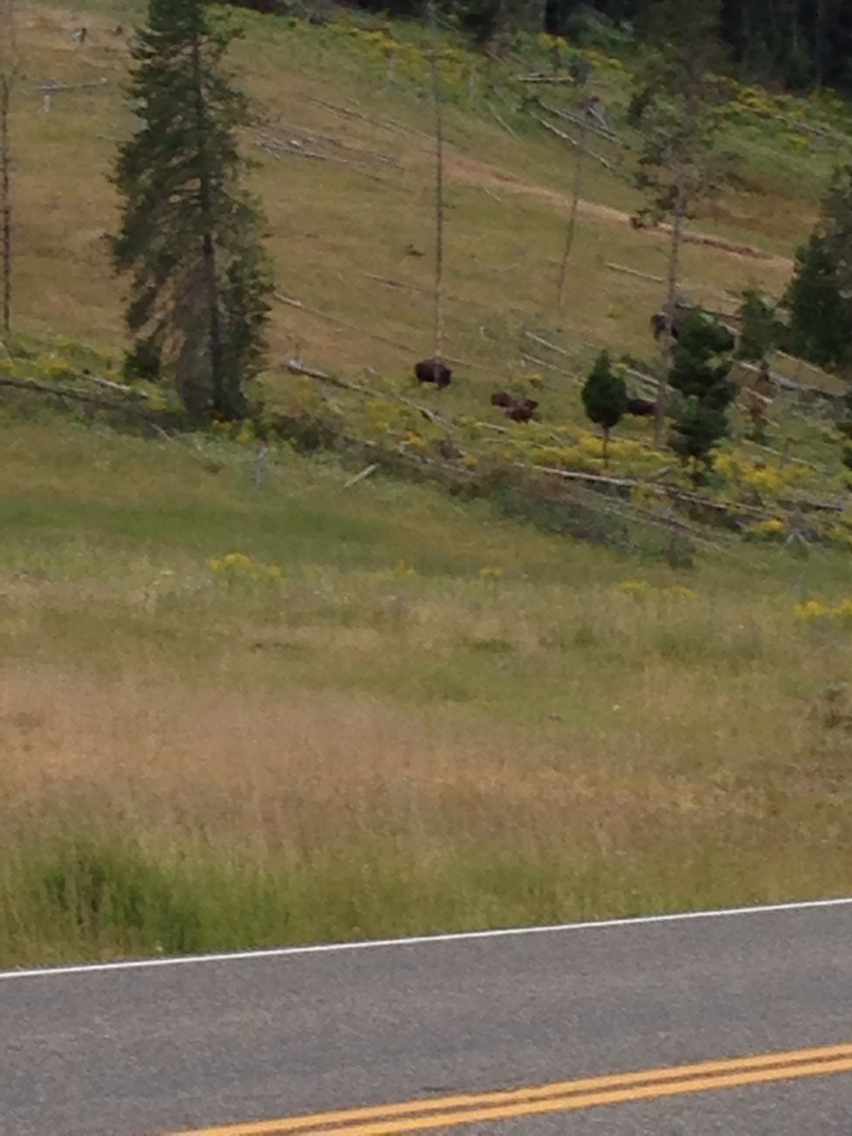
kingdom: Animalia
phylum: Chordata
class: Mammalia
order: Artiodactyla
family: Bovidae
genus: Bison
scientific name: Bison bison
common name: American bison
